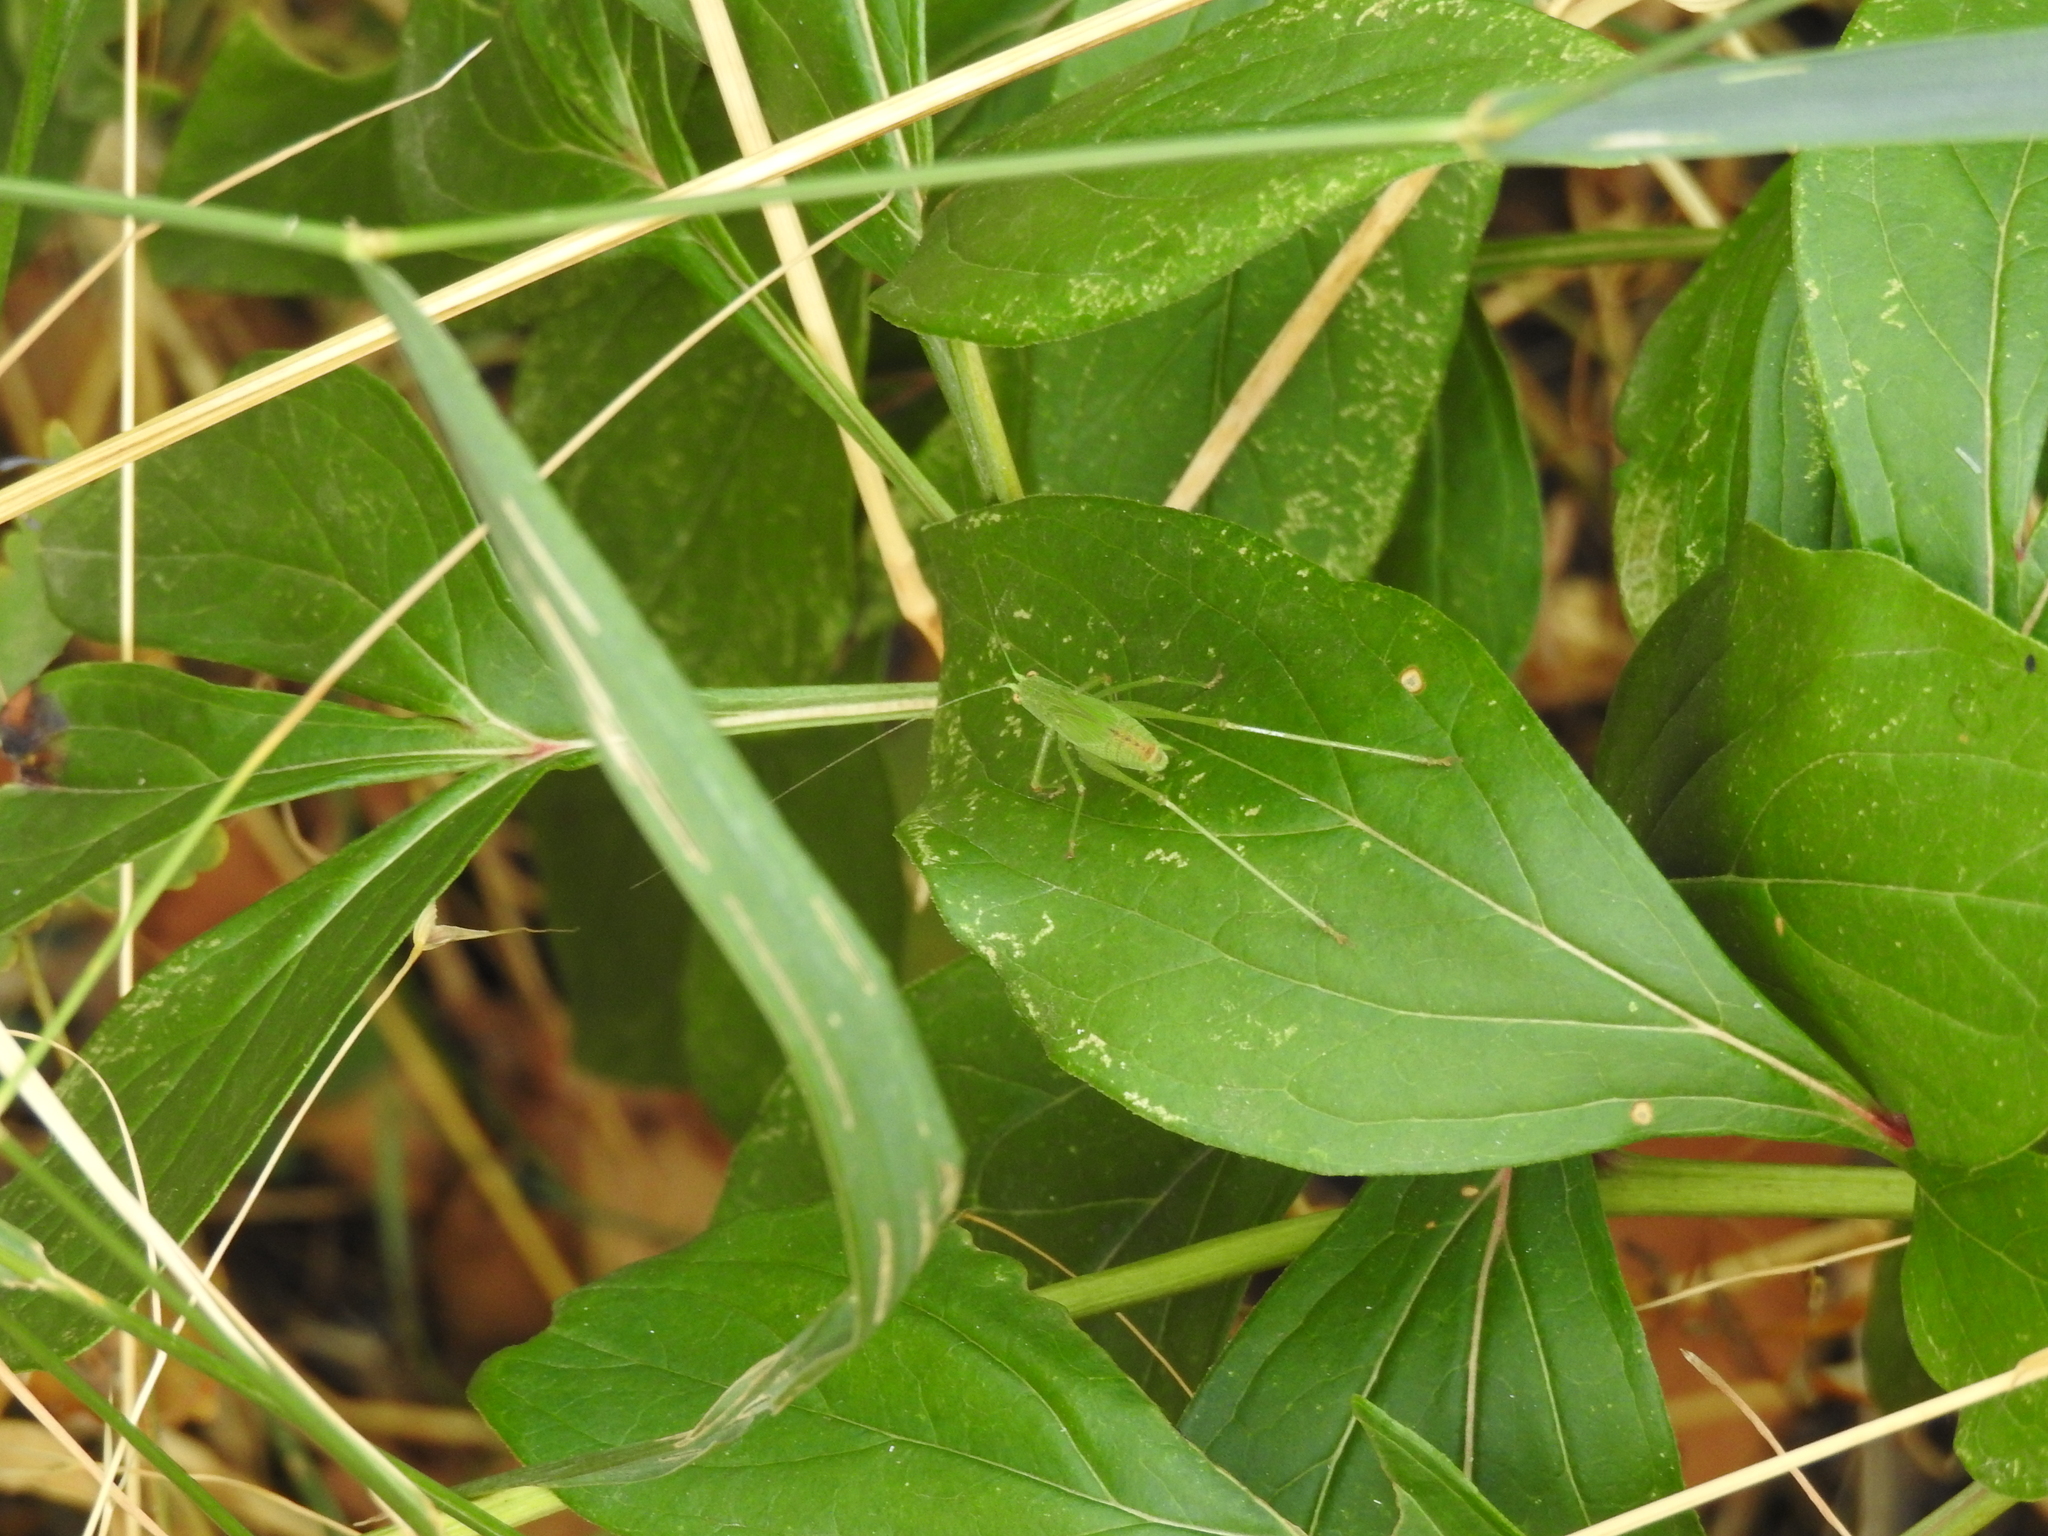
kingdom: Animalia
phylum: Arthropoda
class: Insecta
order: Orthoptera
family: Tettigoniidae
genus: Phaneroptera
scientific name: Phaneroptera nana
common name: Southern sickle bush-cricket
